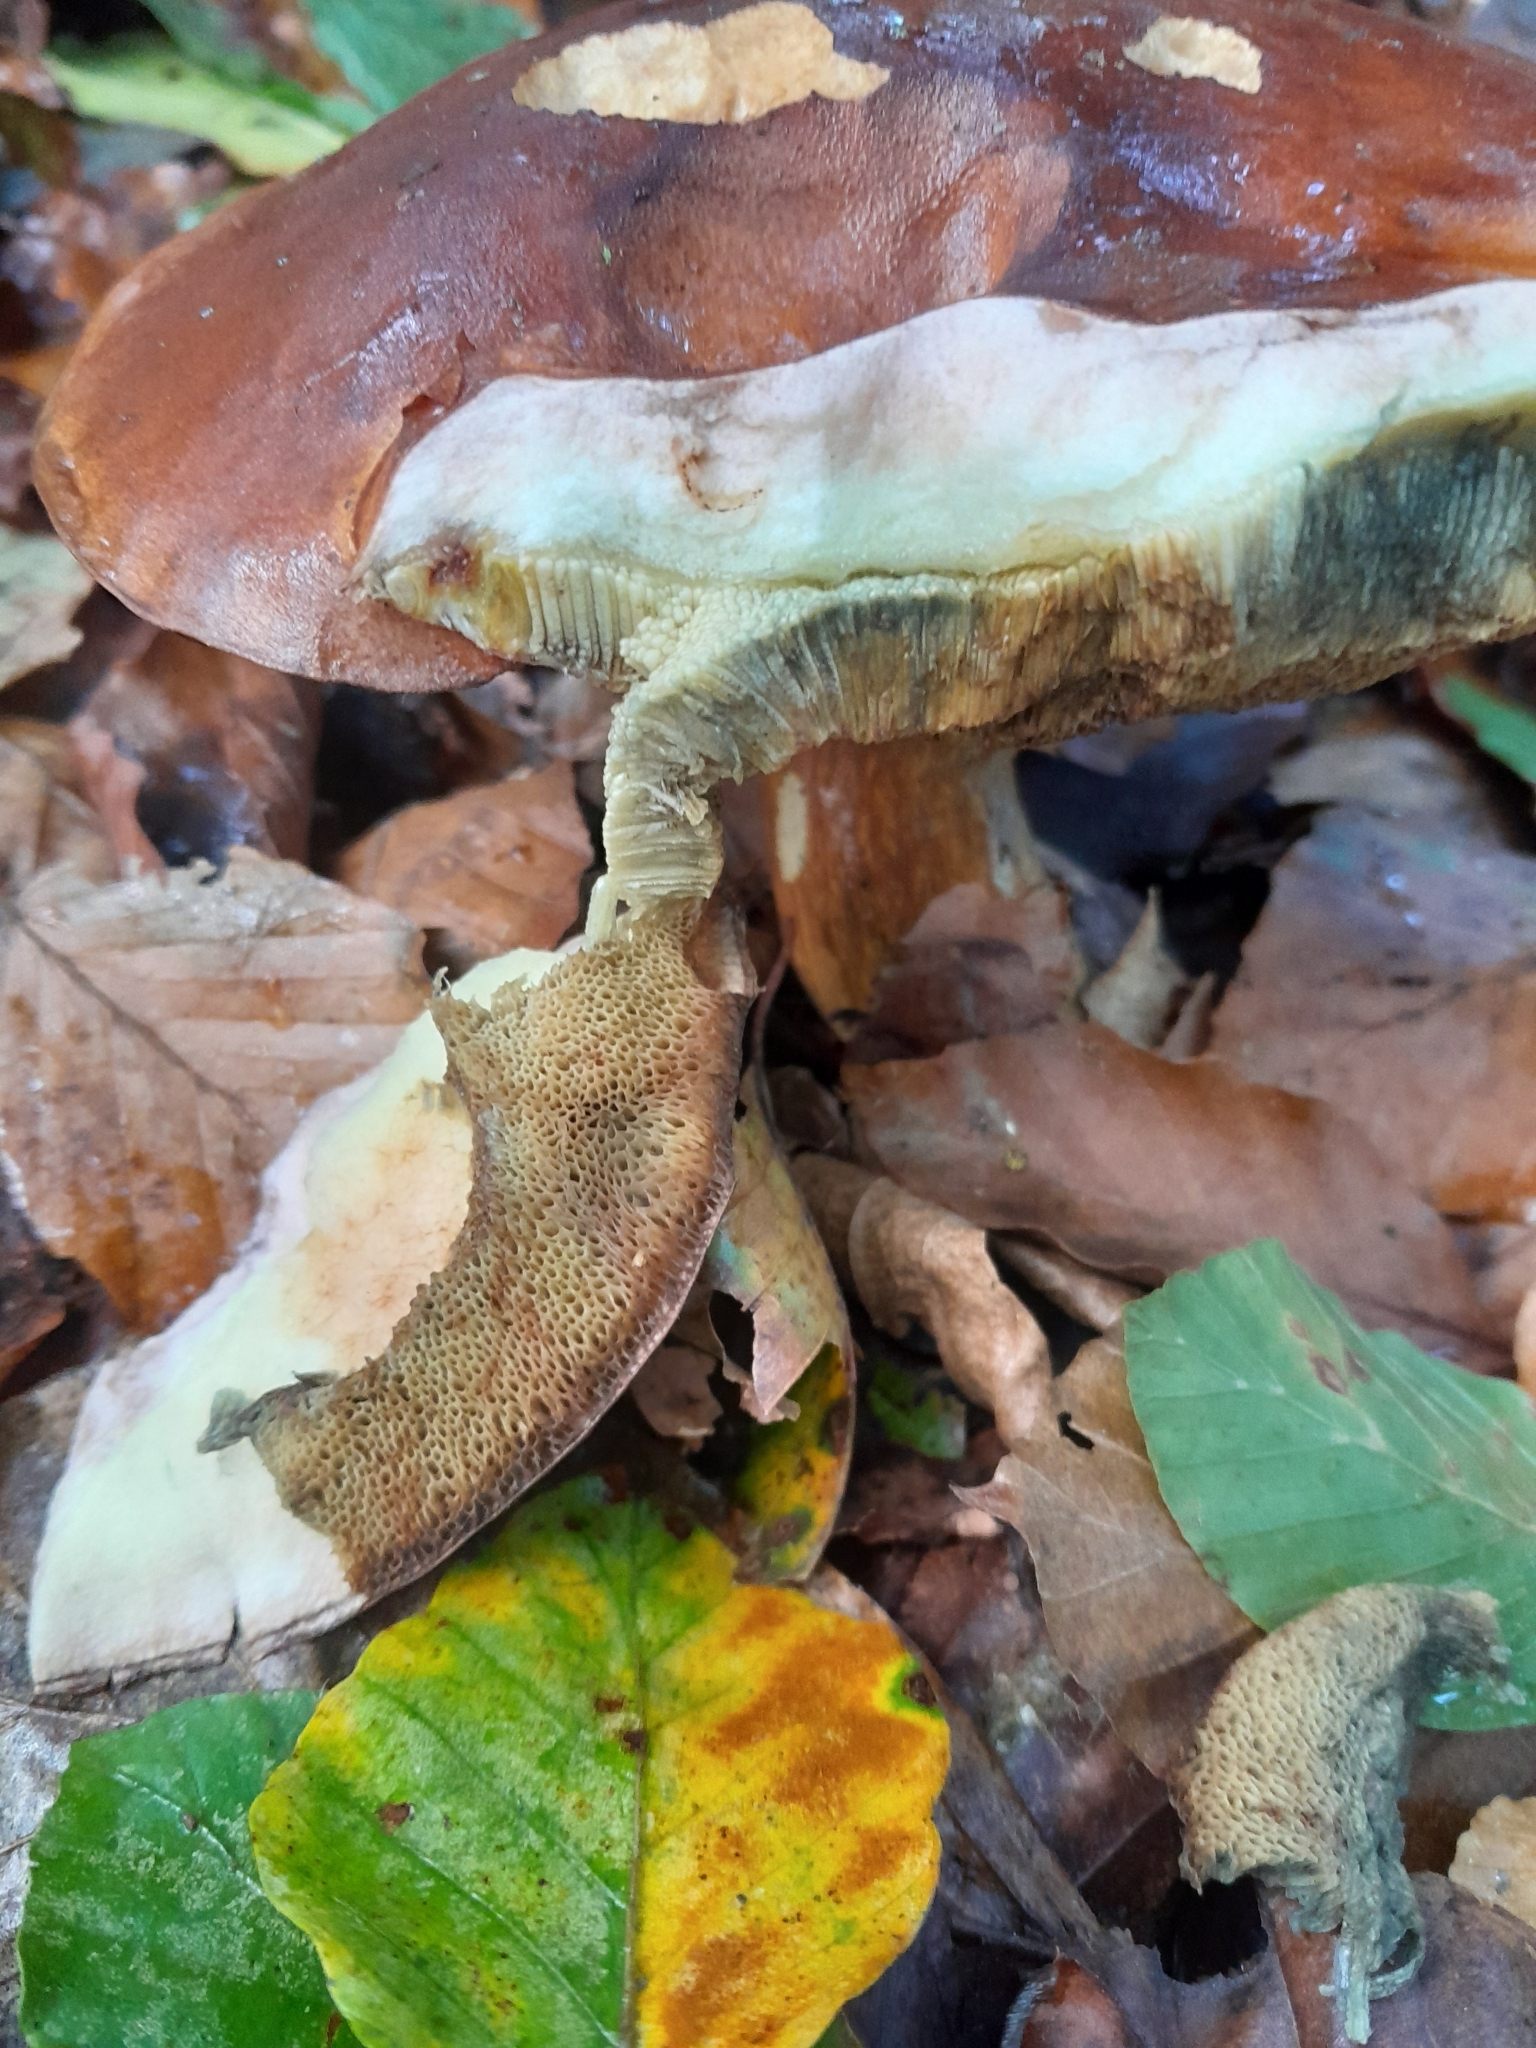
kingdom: Fungi
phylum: Basidiomycota
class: Agaricomycetes
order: Boletales
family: Boletaceae
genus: Imleria
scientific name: Imleria badia
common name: Bay bolete
